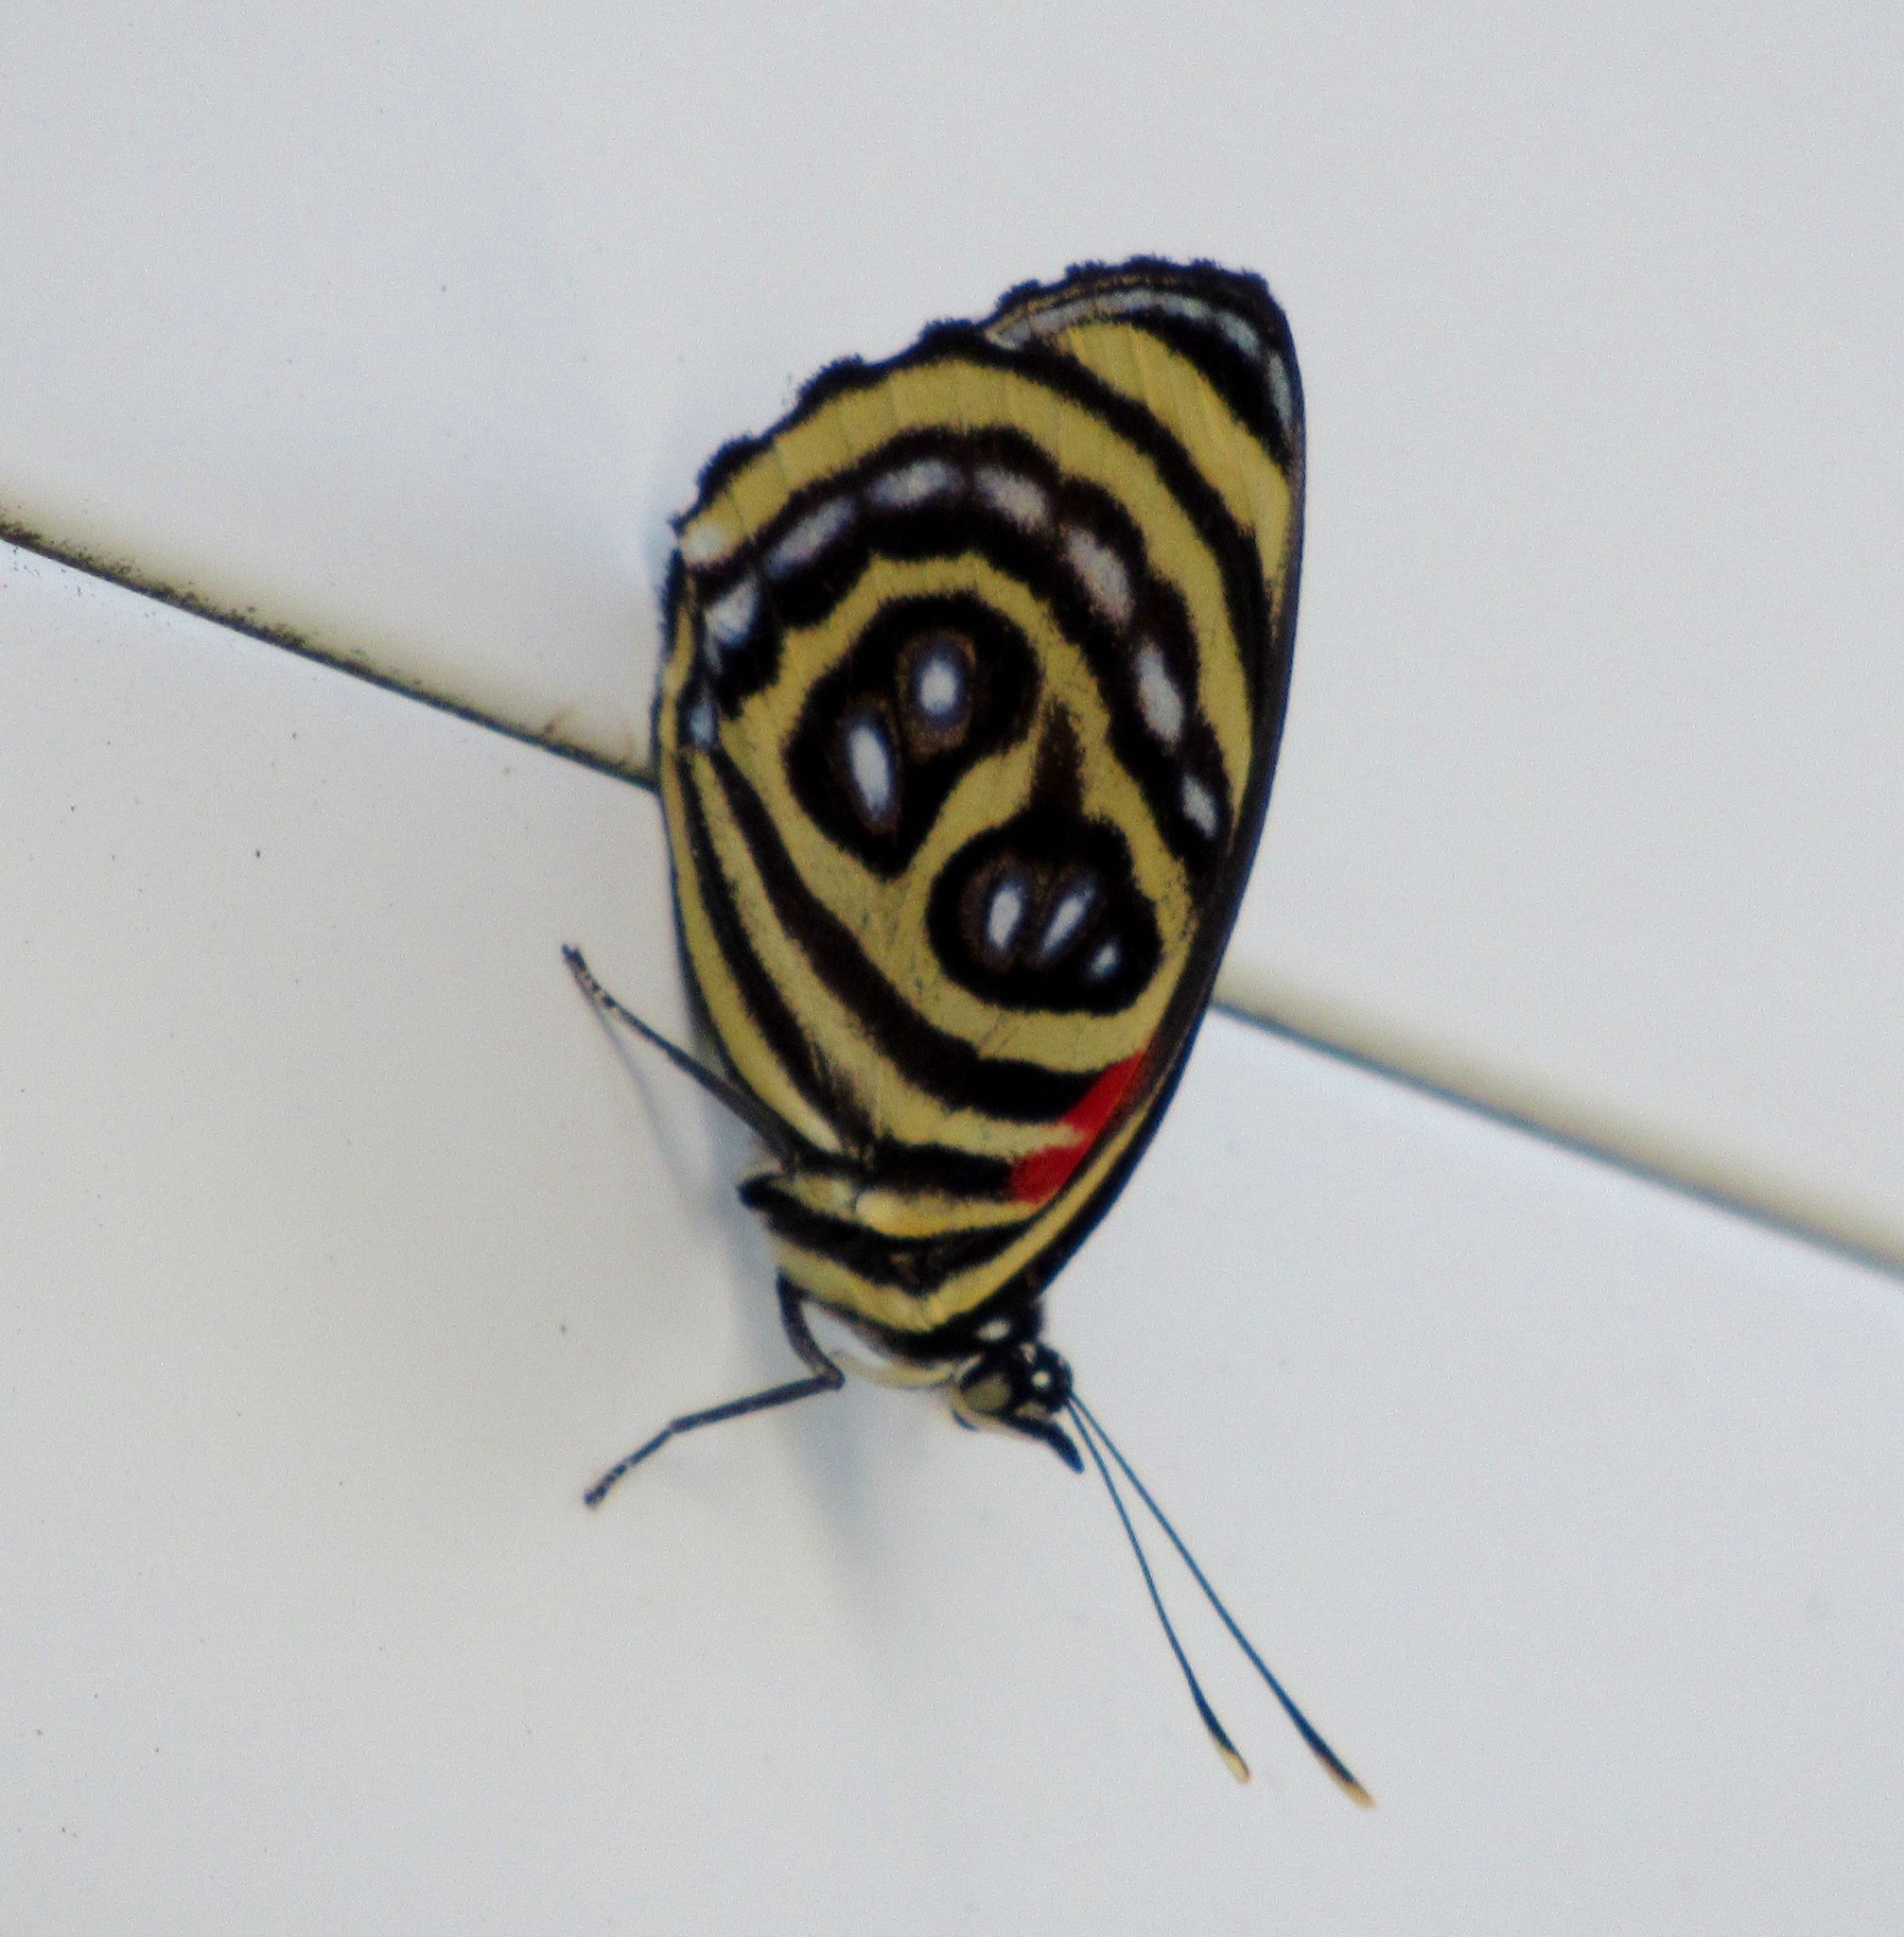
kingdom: Animalia
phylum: Arthropoda
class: Insecta
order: Lepidoptera
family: Nymphalidae
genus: Catagramma
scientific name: Catagramma pygas
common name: Godart's numberwing
